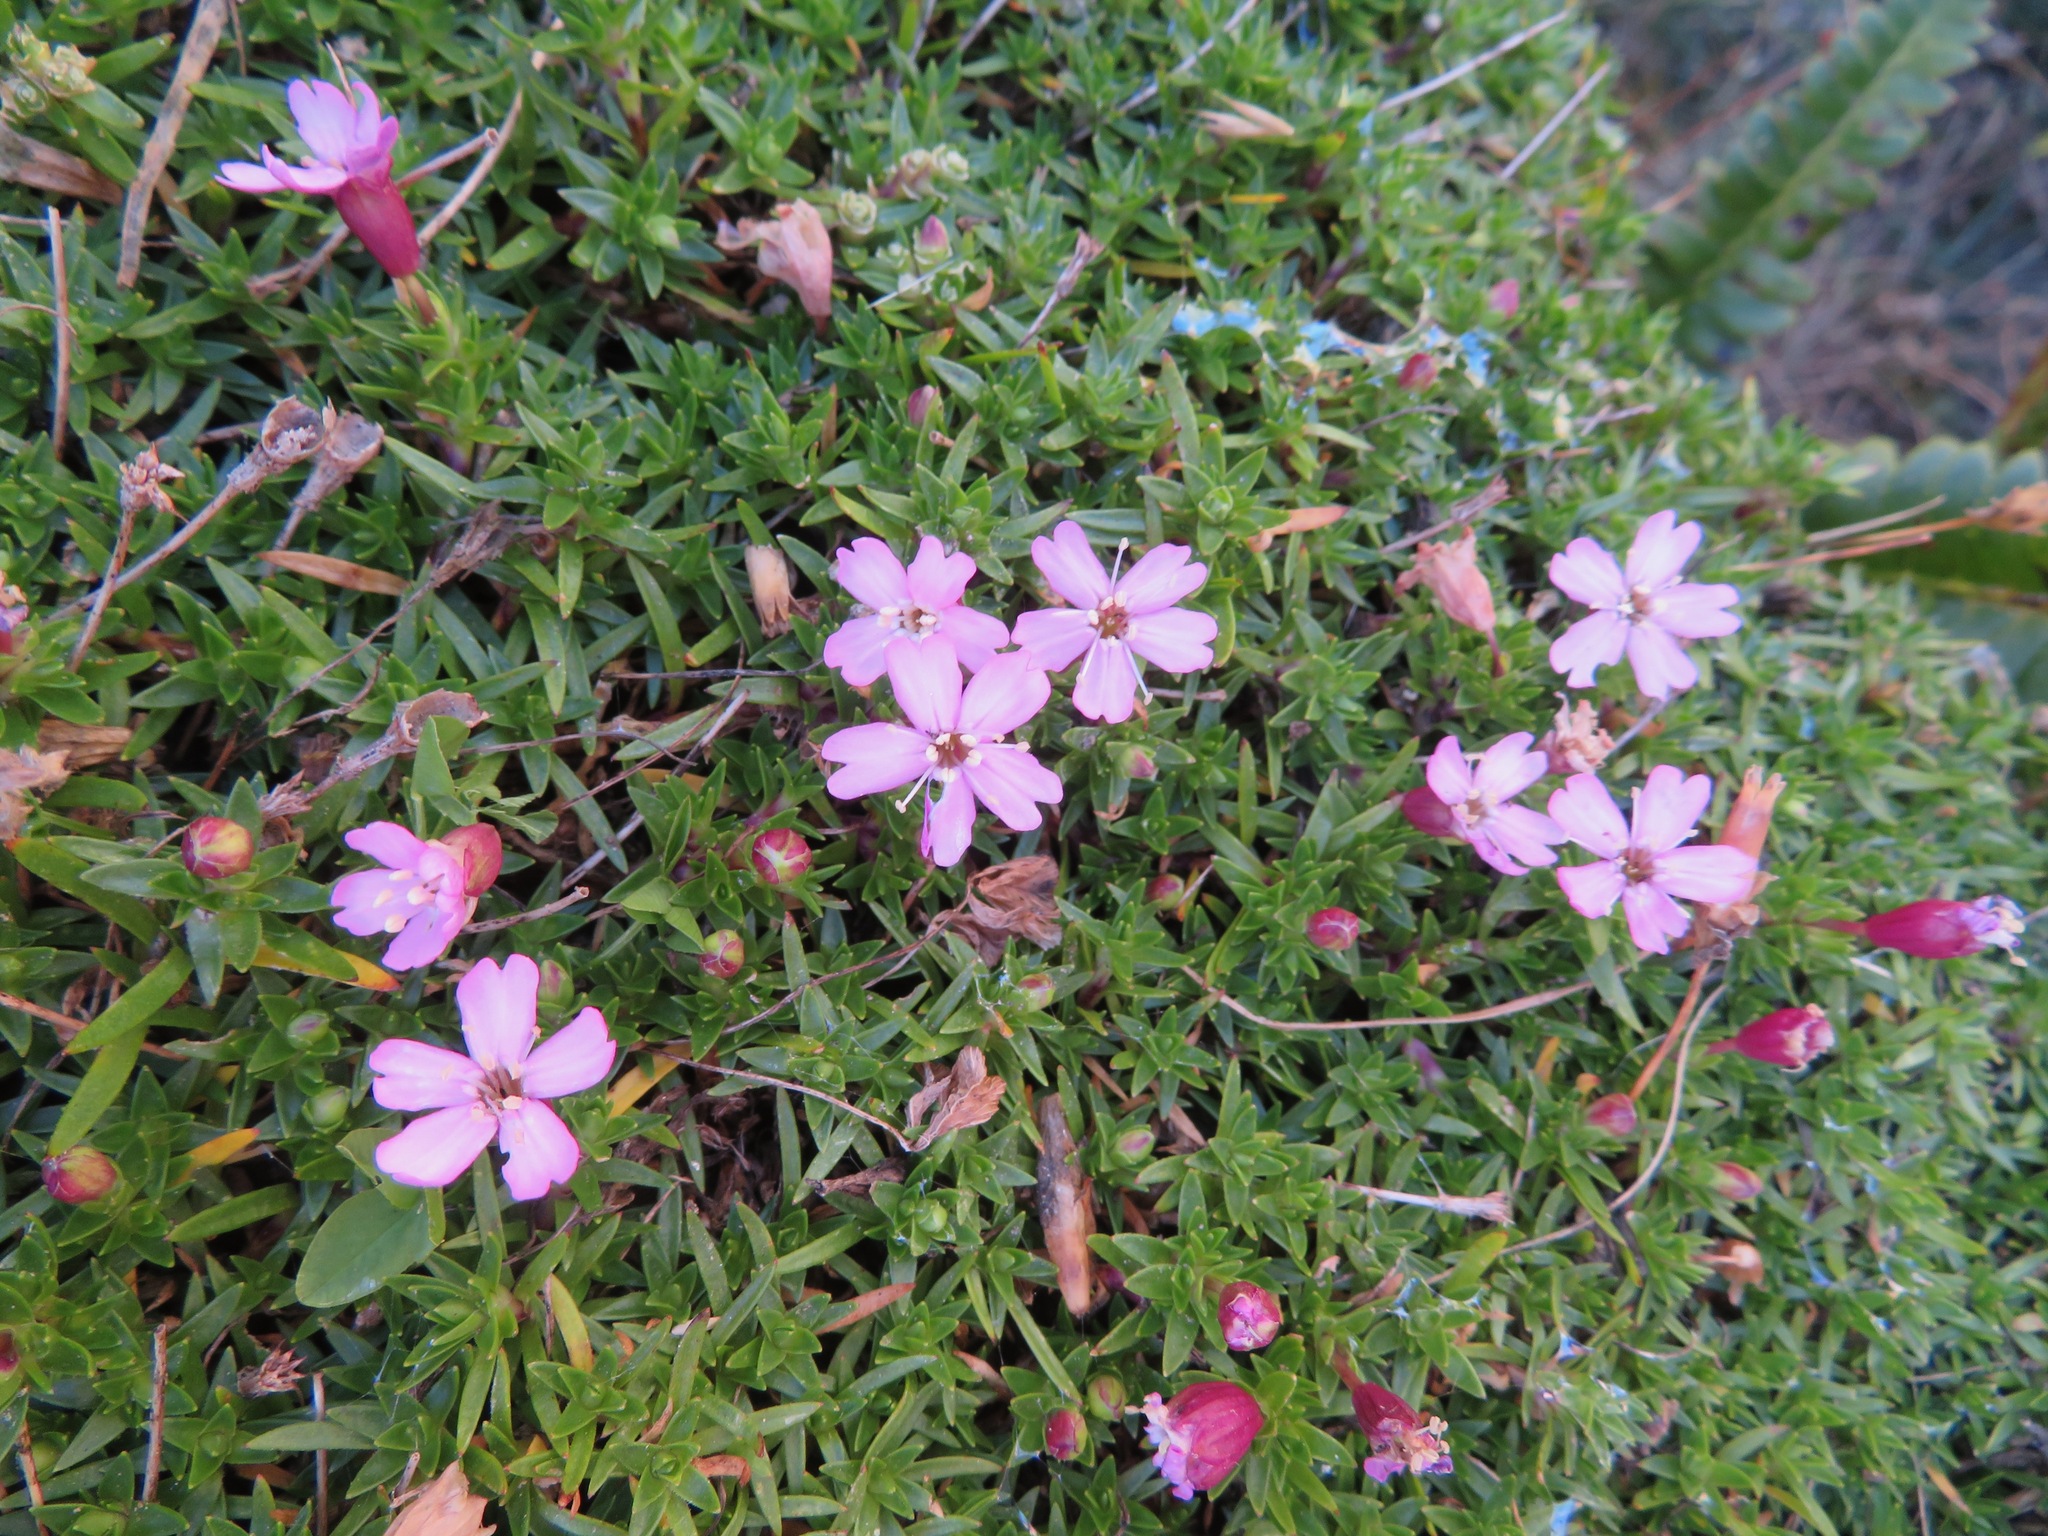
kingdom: Plantae
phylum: Tracheophyta
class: Magnoliopsida
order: Caryophyllales
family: Caryophyllaceae
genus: Silene
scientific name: Silene acaulis
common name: Moss campion
